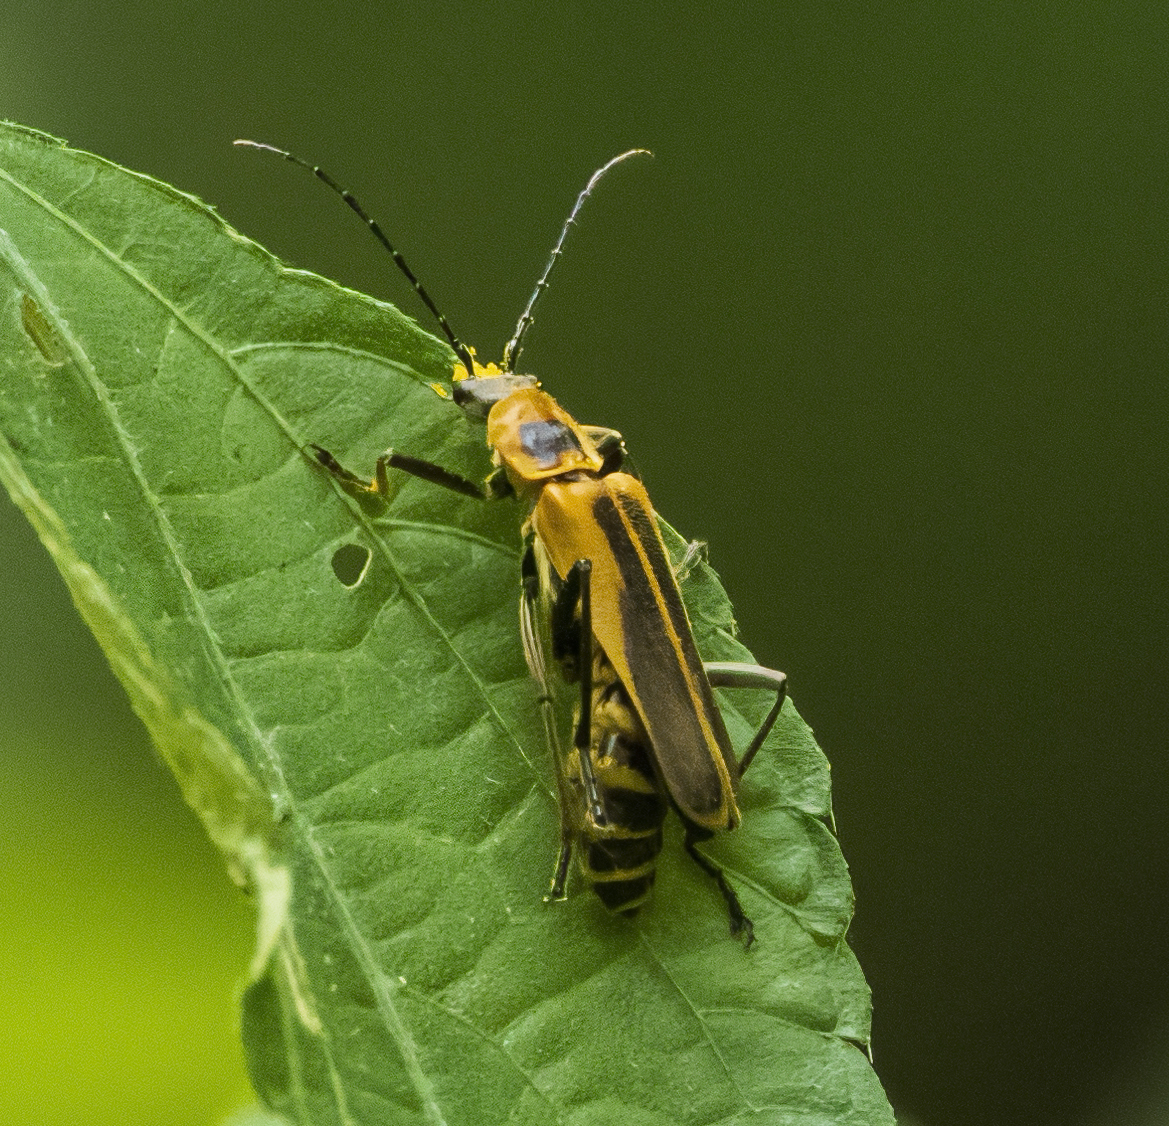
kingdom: Animalia
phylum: Arthropoda
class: Insecta
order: Coleoptera
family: Cantharidae
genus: Chauliognathus
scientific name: Chauliognathus pensylvanicus
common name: Goldenrod soldier beetle
